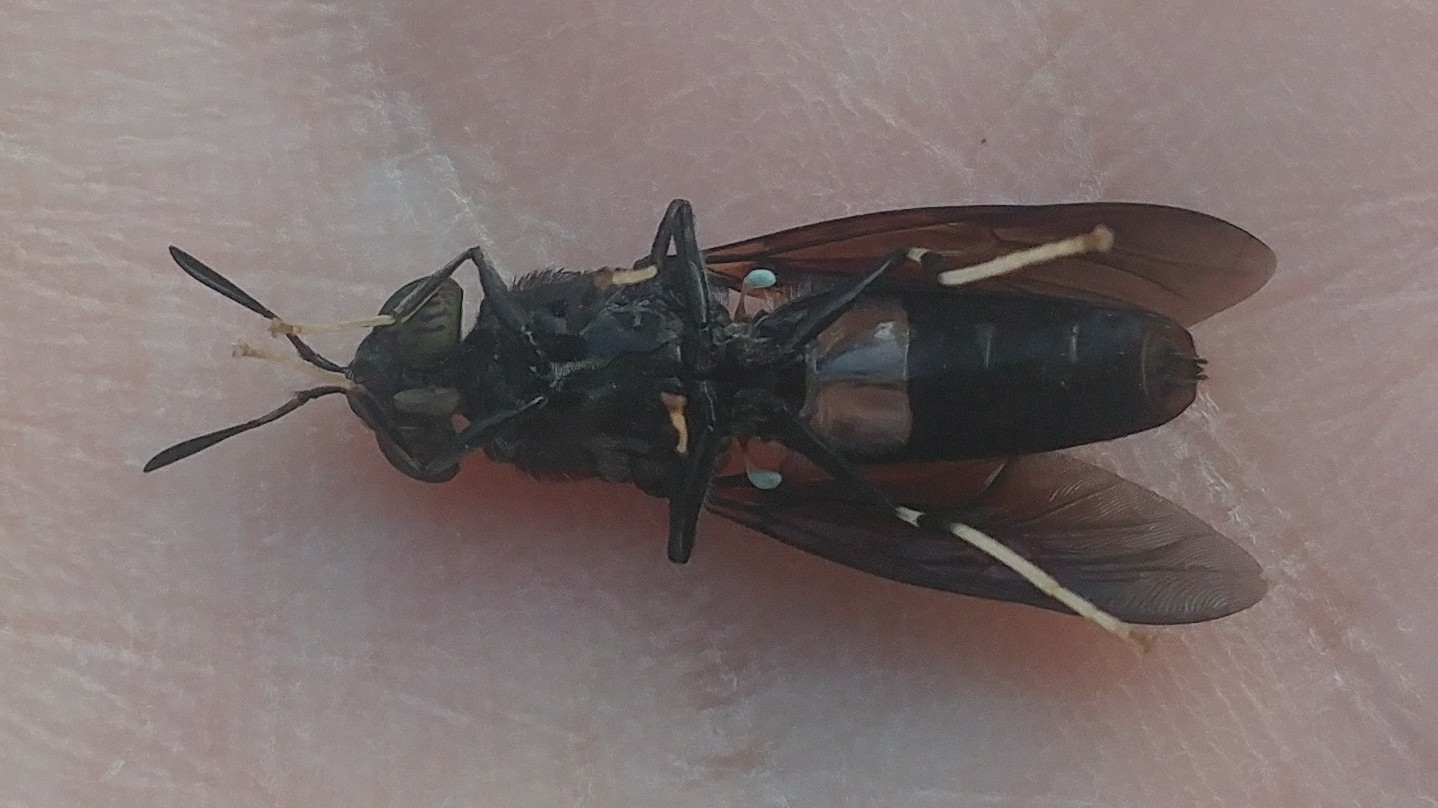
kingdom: Animalia
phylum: Arthropoda
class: Insecta
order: Diptera
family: Stratiomyidae
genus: Hermetia
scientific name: Hermetia illucens
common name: Black soldier fly
